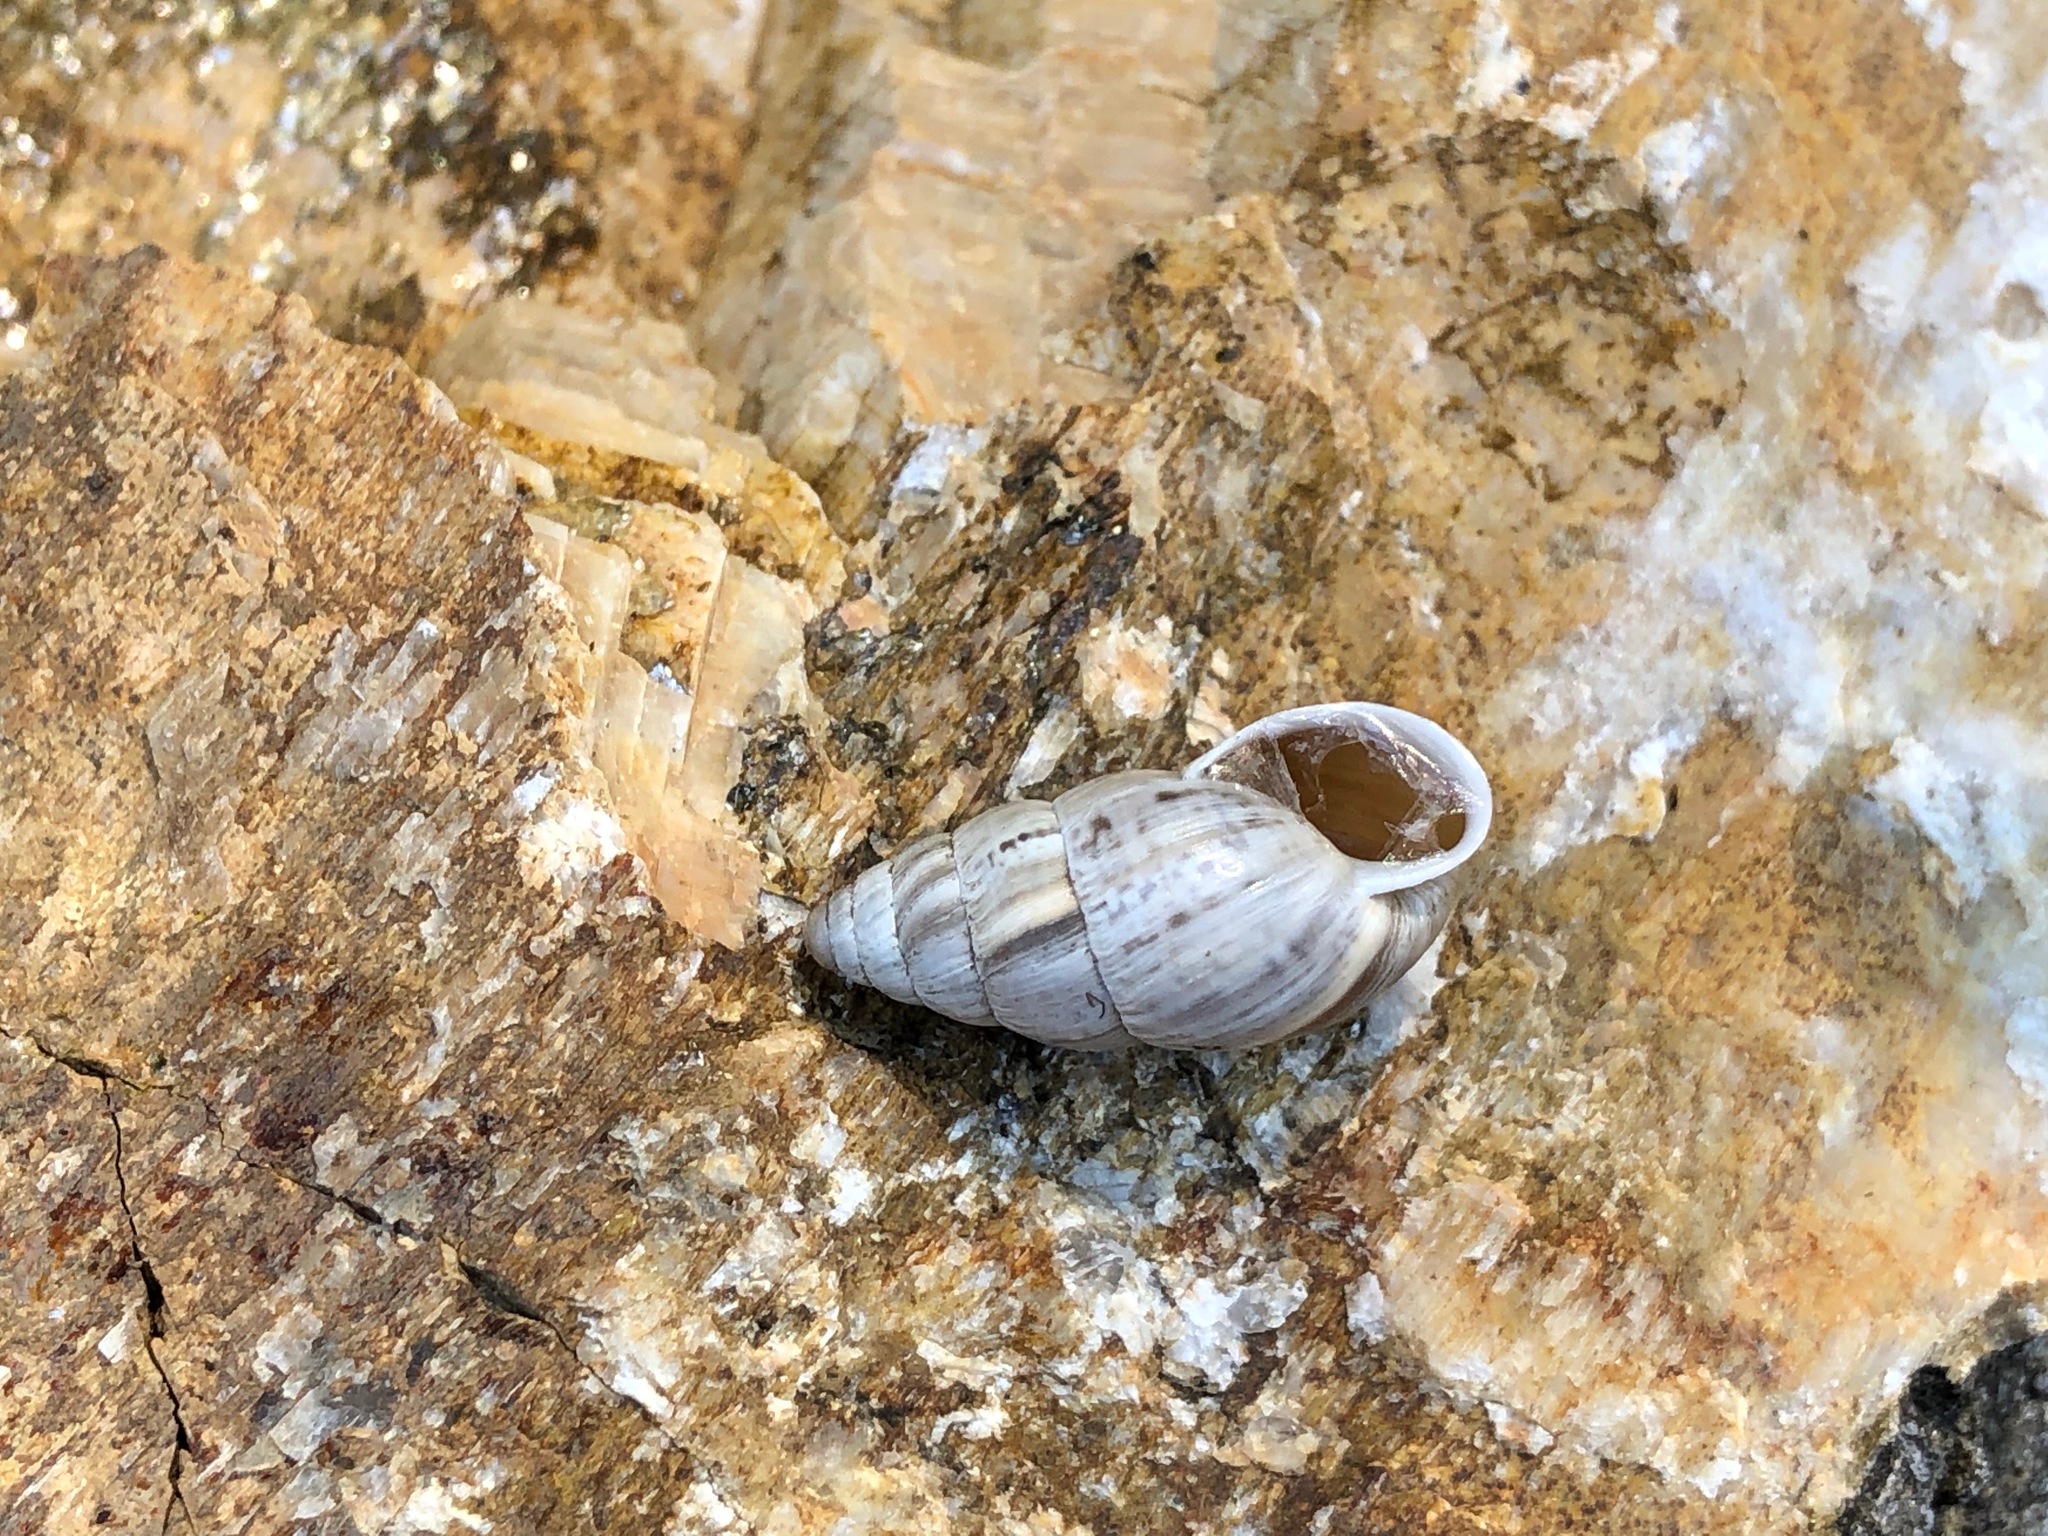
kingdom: Animalia
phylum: Mollusca
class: Gastropoda
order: Stylommatophora
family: Enidae
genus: Zebrina
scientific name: Zebrina detrita
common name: Large bulin
